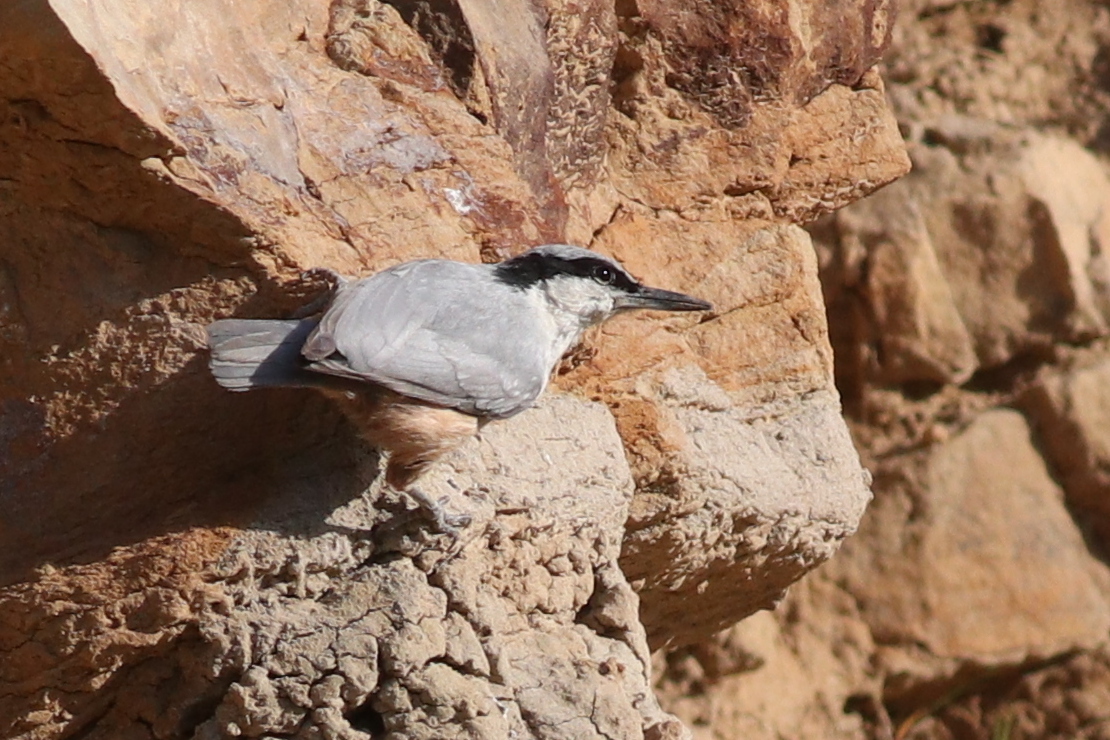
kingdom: Animalia
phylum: Chordata
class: Aves
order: Passeriformes
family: Sittidae
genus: Sitta
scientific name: Sitta tephronota
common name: Eastern rock nuthatch
